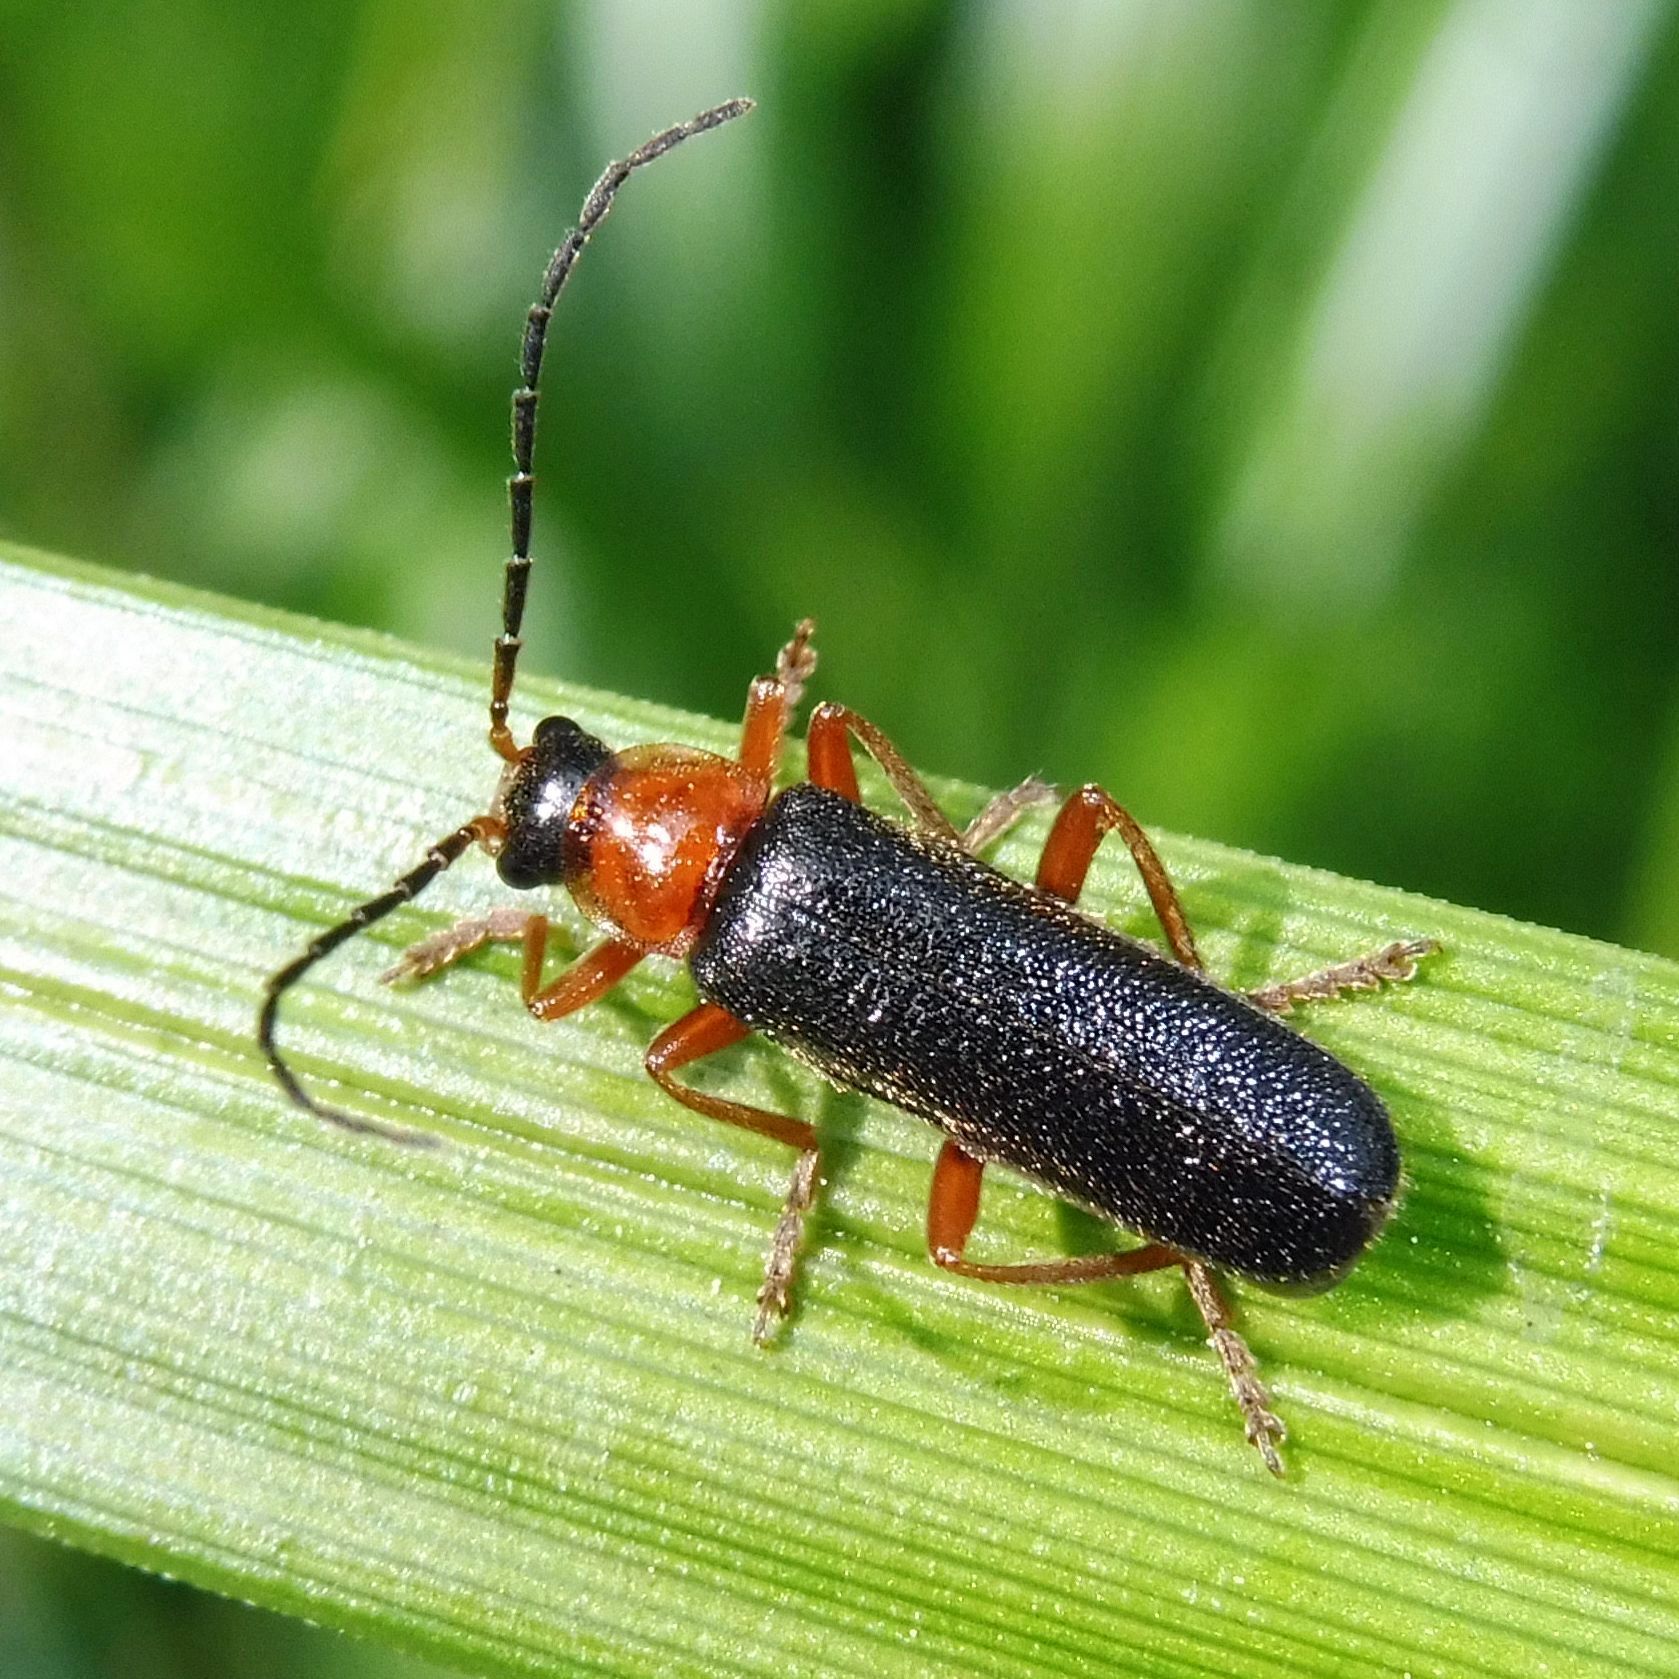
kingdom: Animalia
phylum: Arthropoda
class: Insecta
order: Coleoptera
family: Cantharidae
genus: Cantharis
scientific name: Cantharis flavilabris
